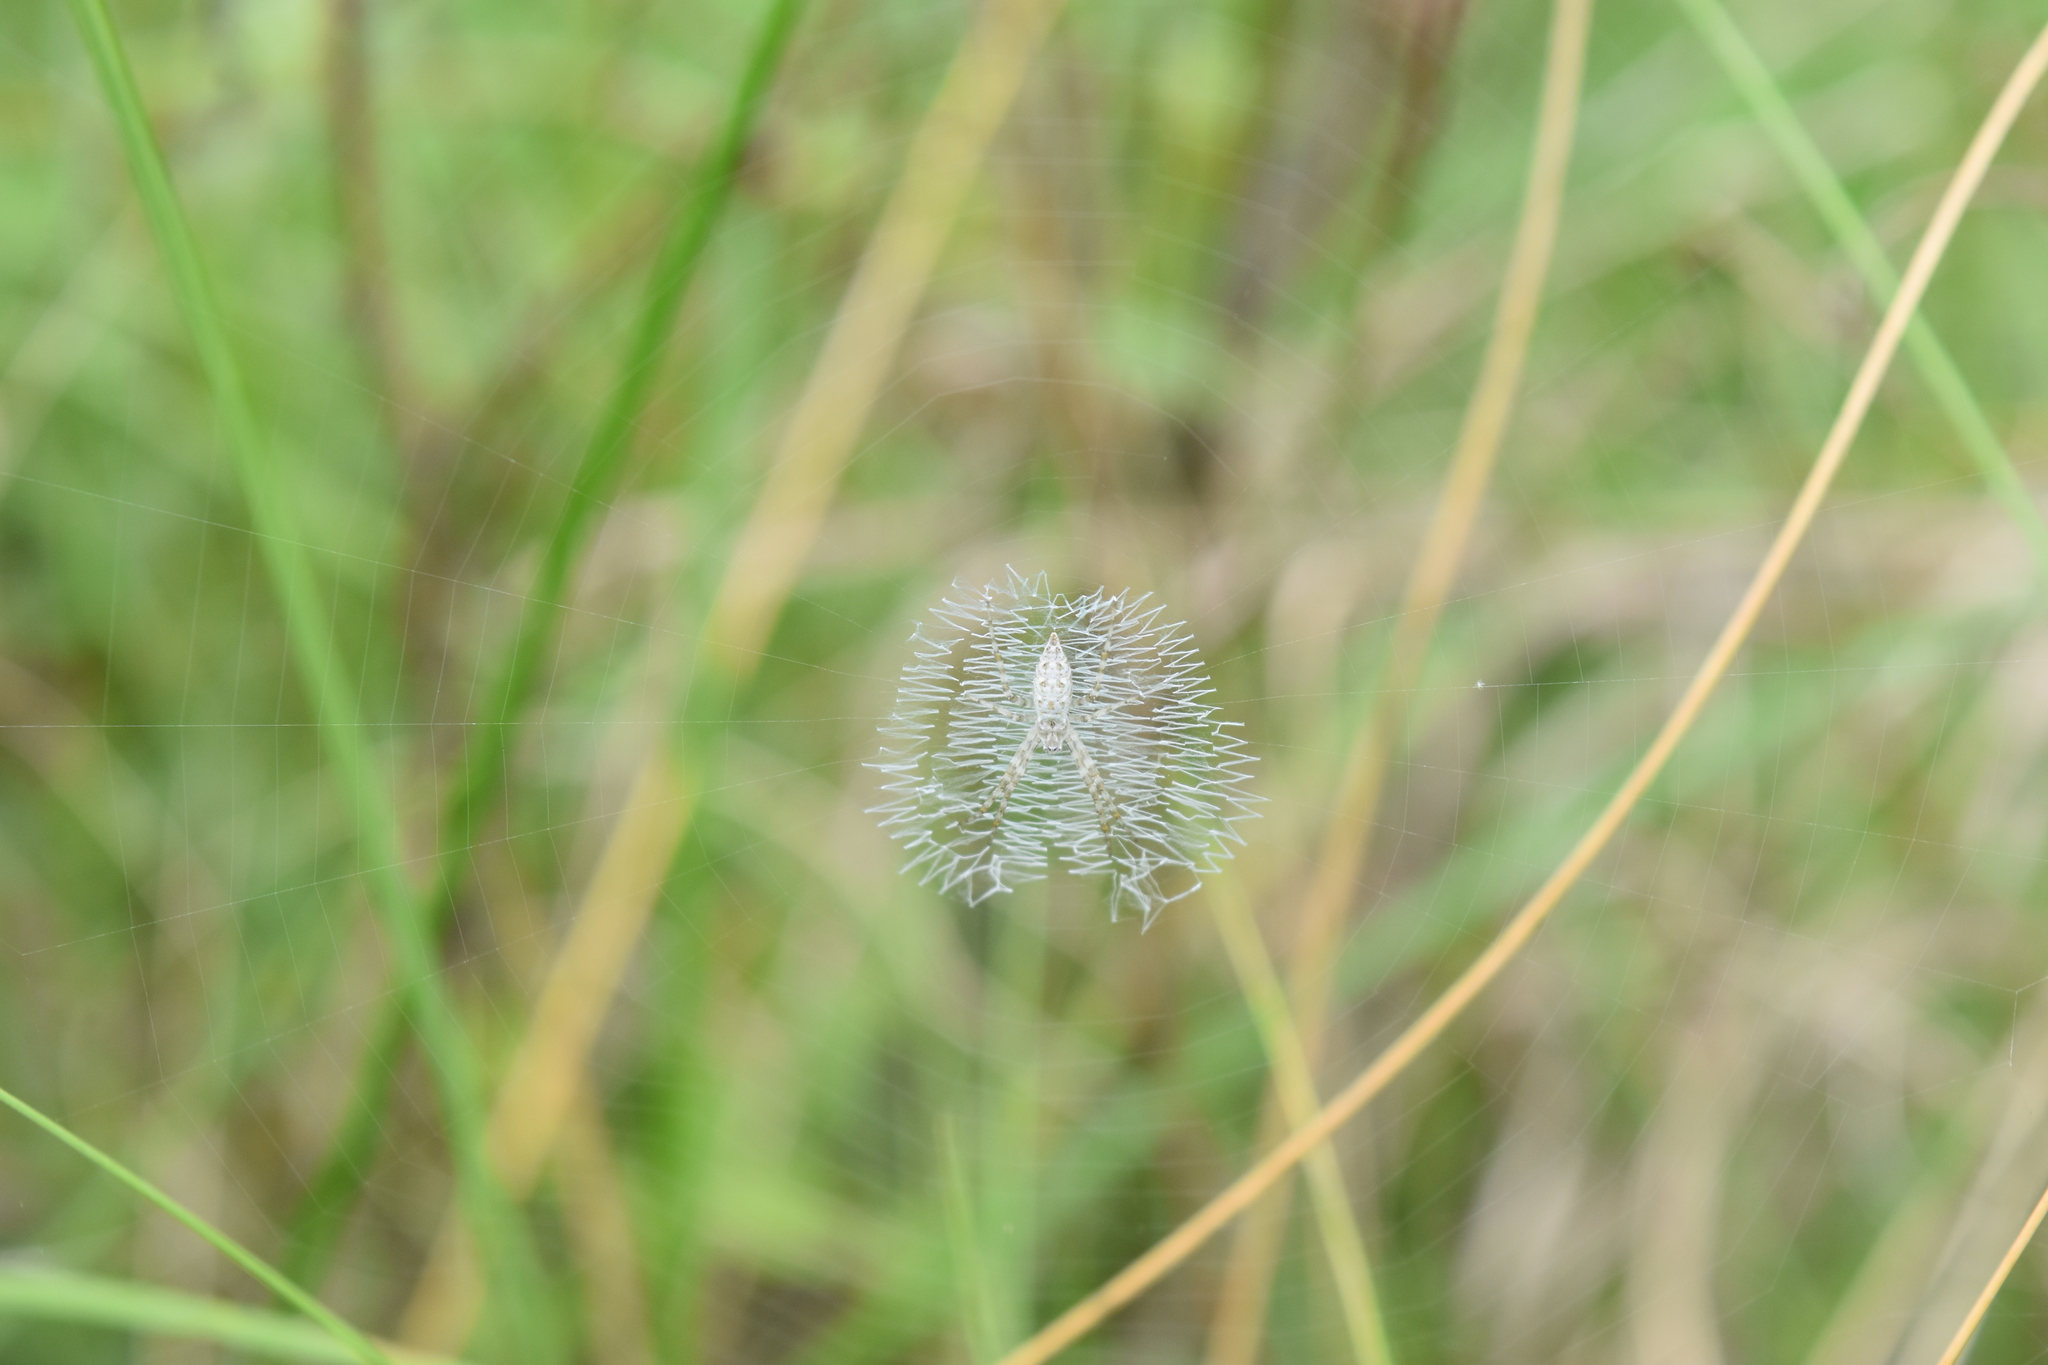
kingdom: Animalia
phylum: Arthropoda
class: Arachnida
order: Araneae
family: Araneidae
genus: Argiope
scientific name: Argiope aurantia
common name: Orb weavers
